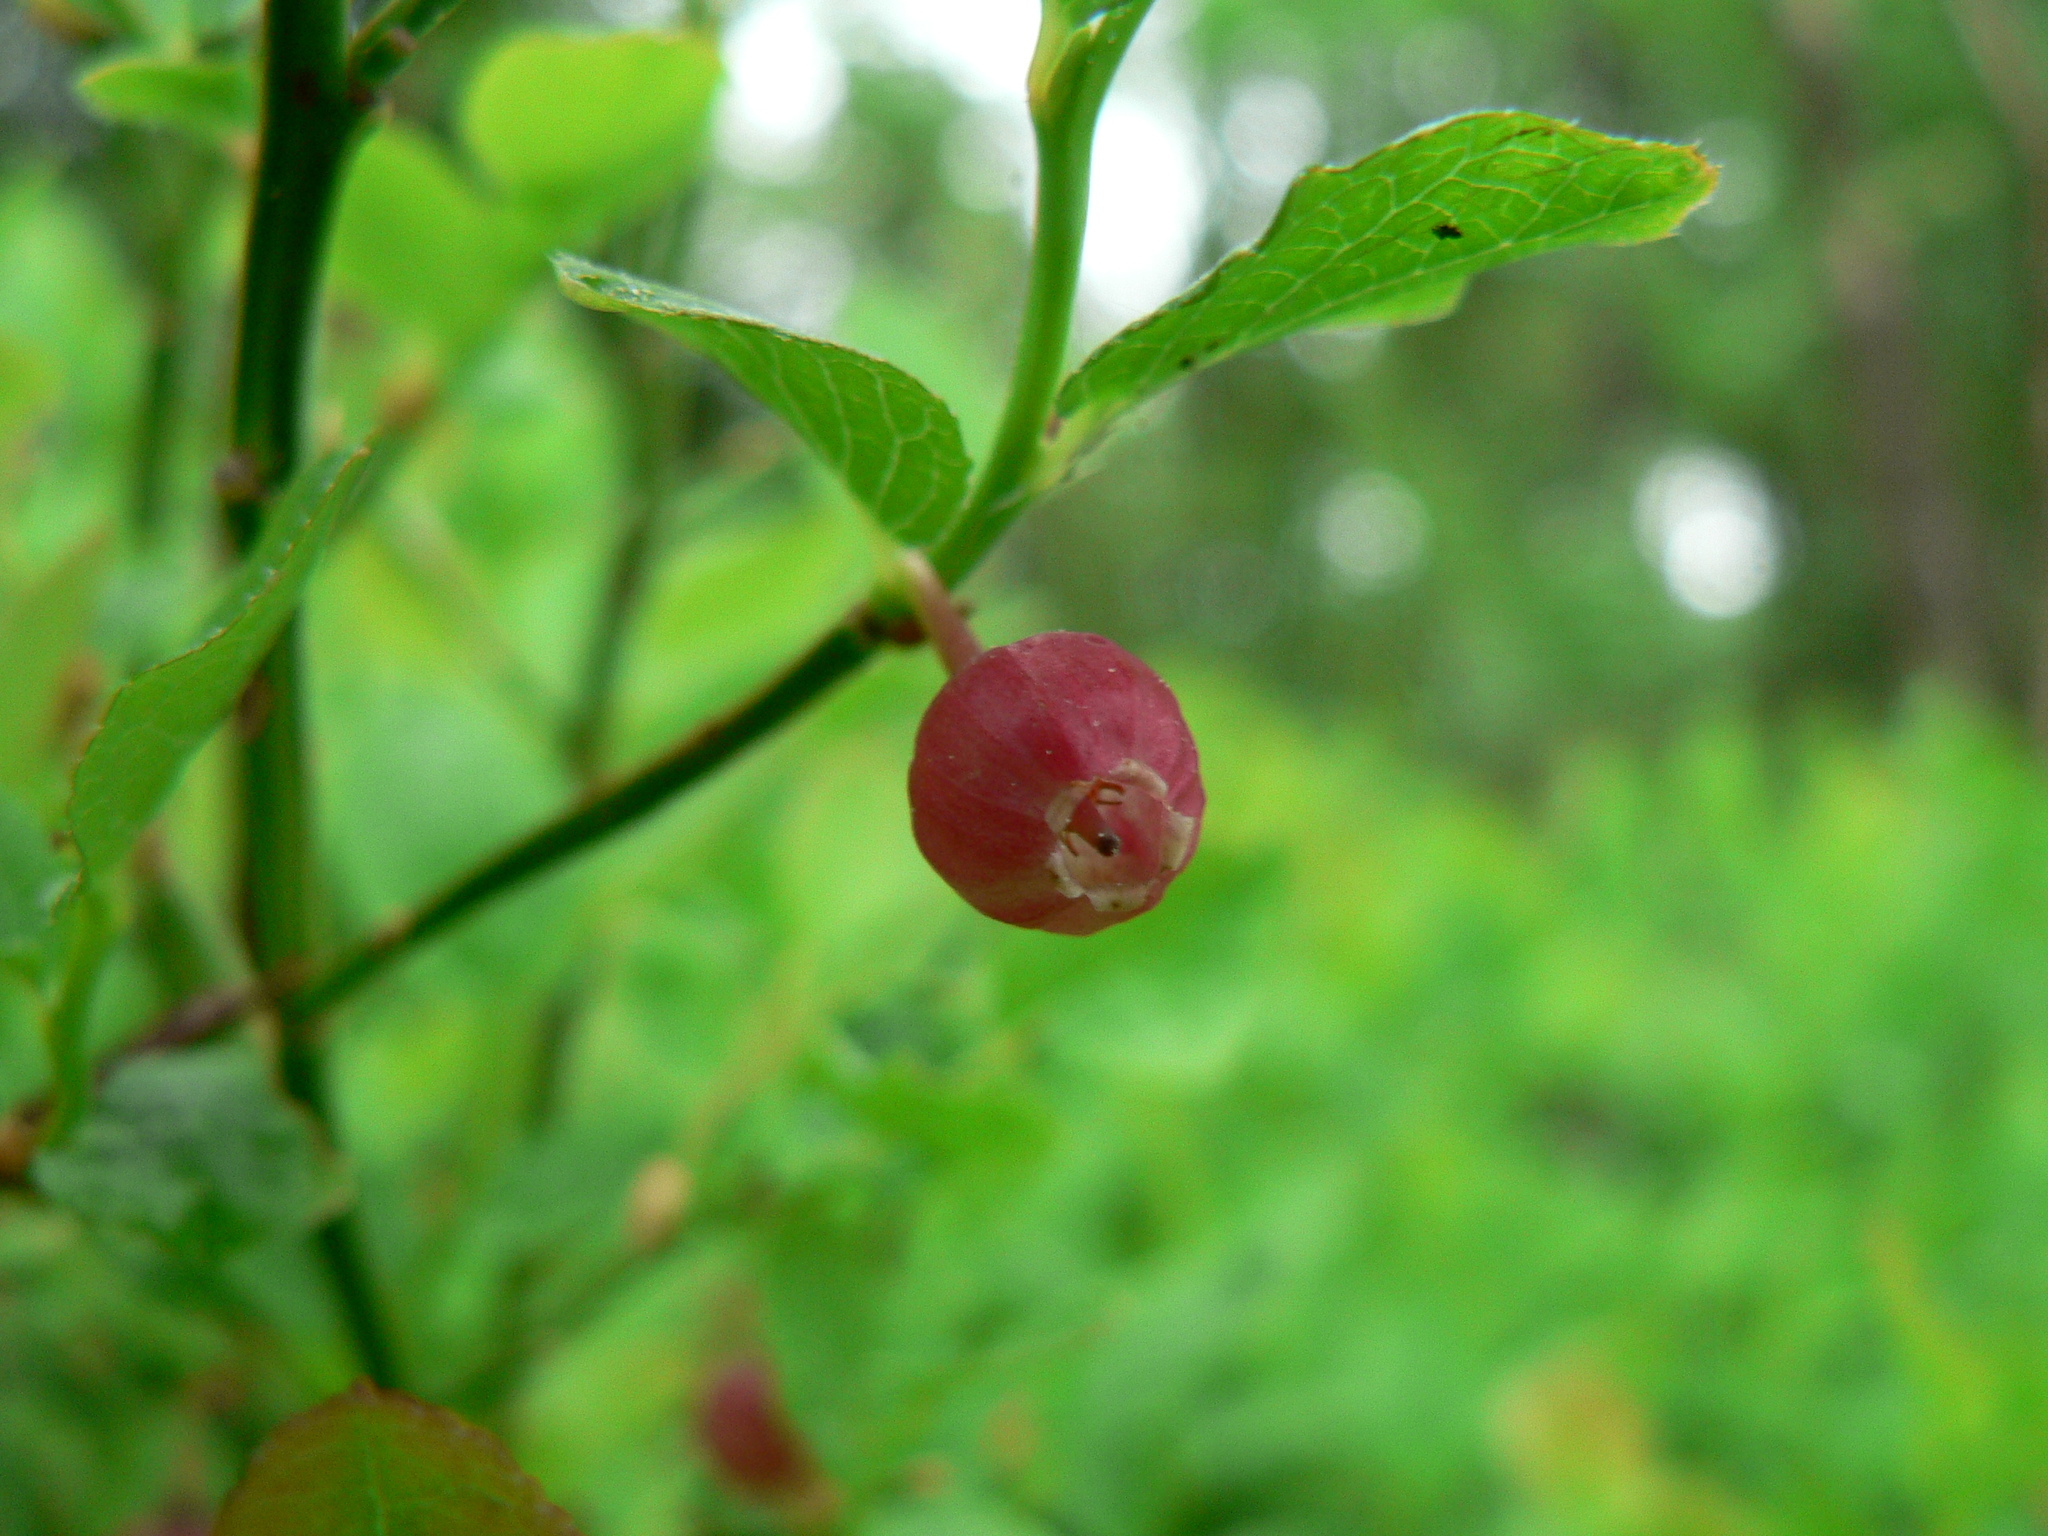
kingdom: Plantae
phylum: Tracheophyta
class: Magnoliopsida
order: Ericales
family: Ericaceae
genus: Vaccinium
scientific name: Vaccinium myrtillus
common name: Bilberry
